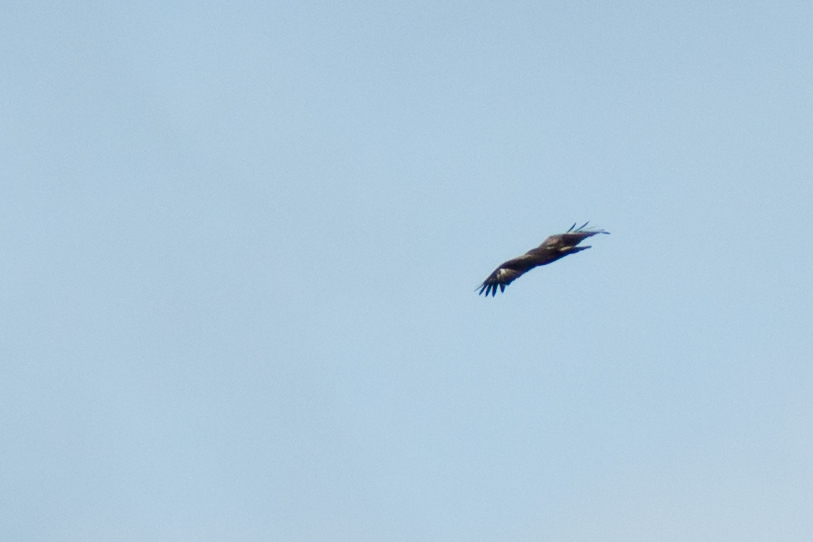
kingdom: Animalia
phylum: Chordata
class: Aves
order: Accipitriformes
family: Accipitridae
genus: Aquila
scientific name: Aquila pomarina
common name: Lesser spotted eagle
